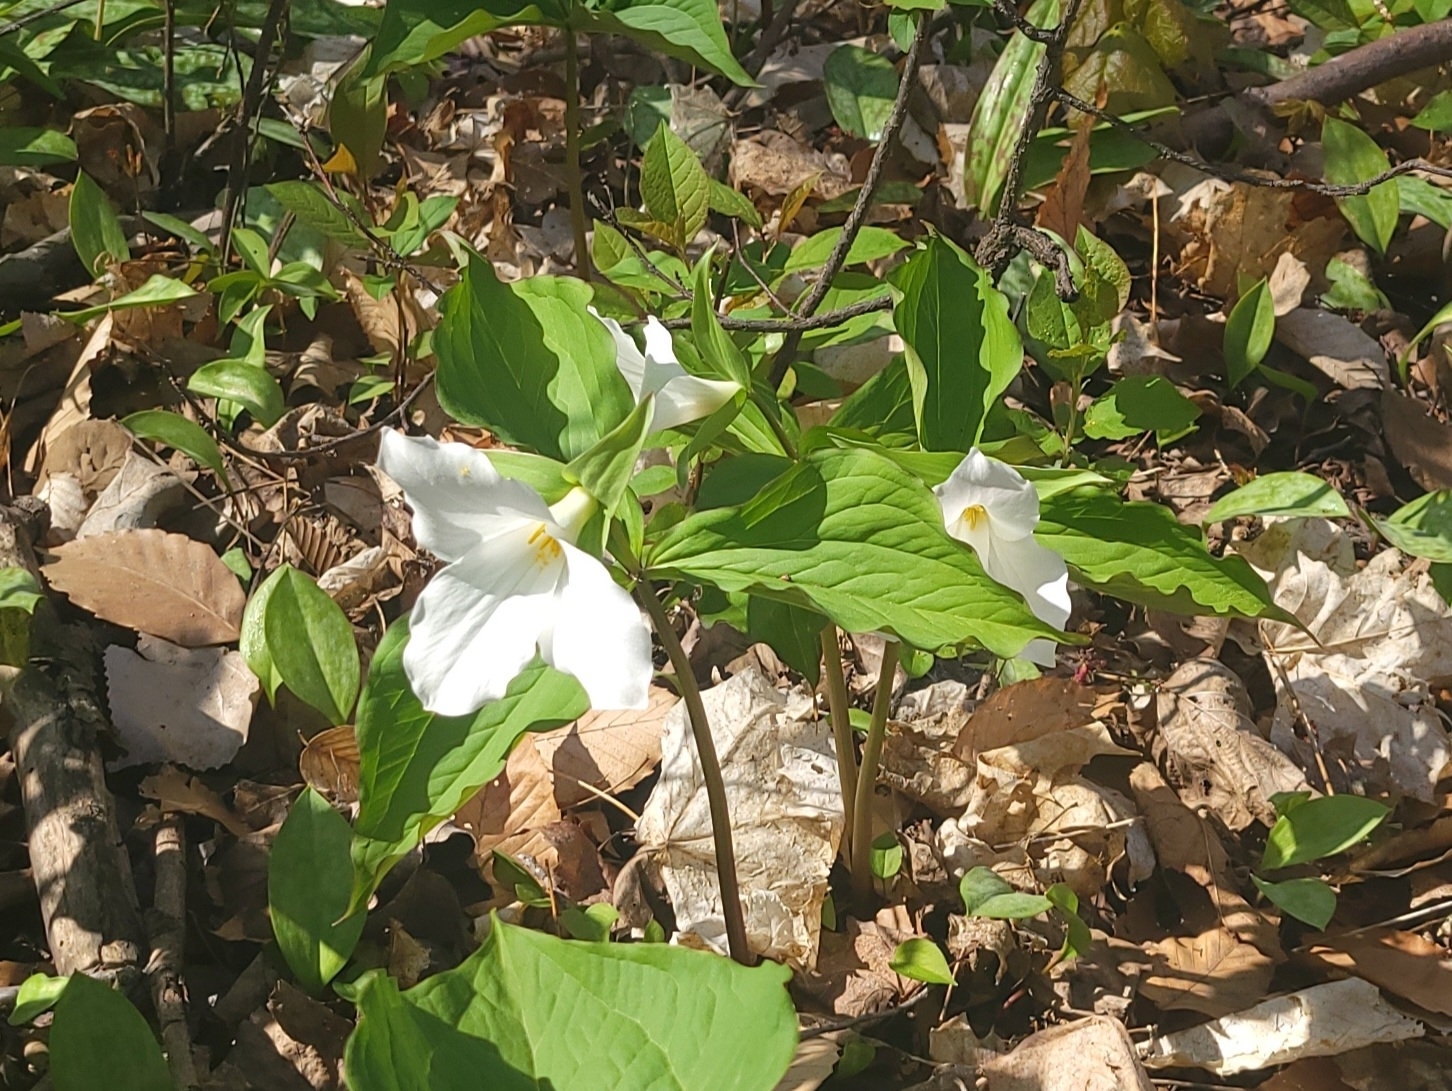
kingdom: Plantae
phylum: Tracheophyta
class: Liliopsida
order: Liliales
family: Melanthiaceae
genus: Trillium
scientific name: Trillium grandiflorum
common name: Great white trillium
